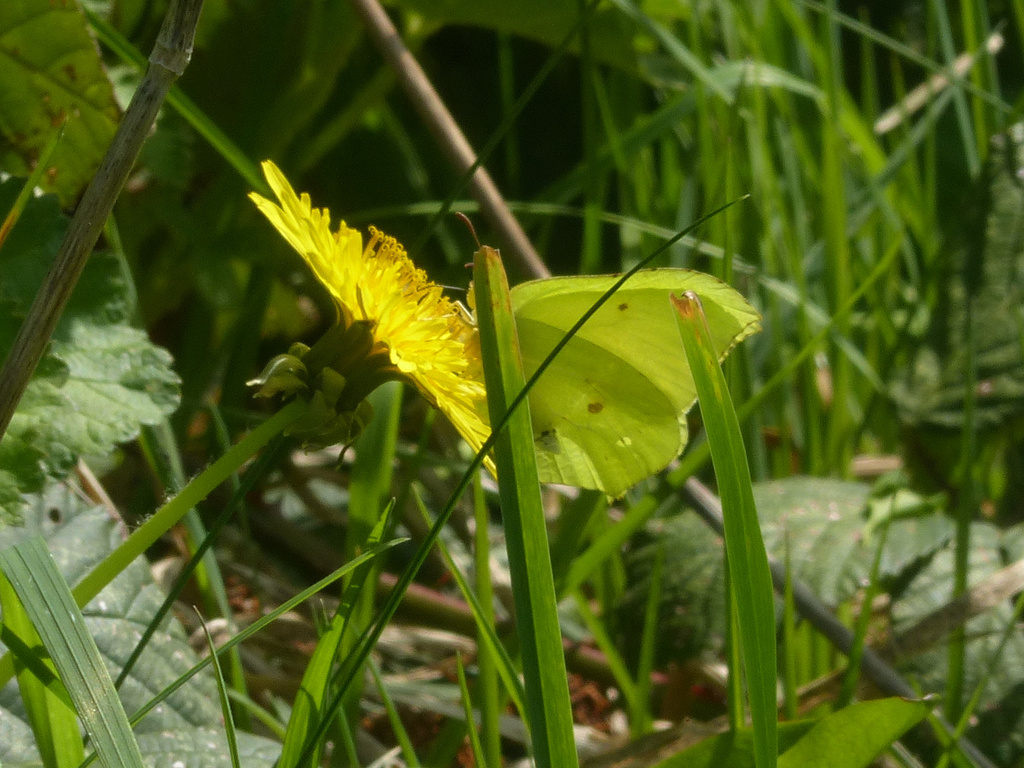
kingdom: Animalia
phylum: Arthropoda
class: Insecta
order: Lepidoptera
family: Pieridae
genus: Gonepteryx
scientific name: Gonepteryx rhamni
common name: Brimstone
